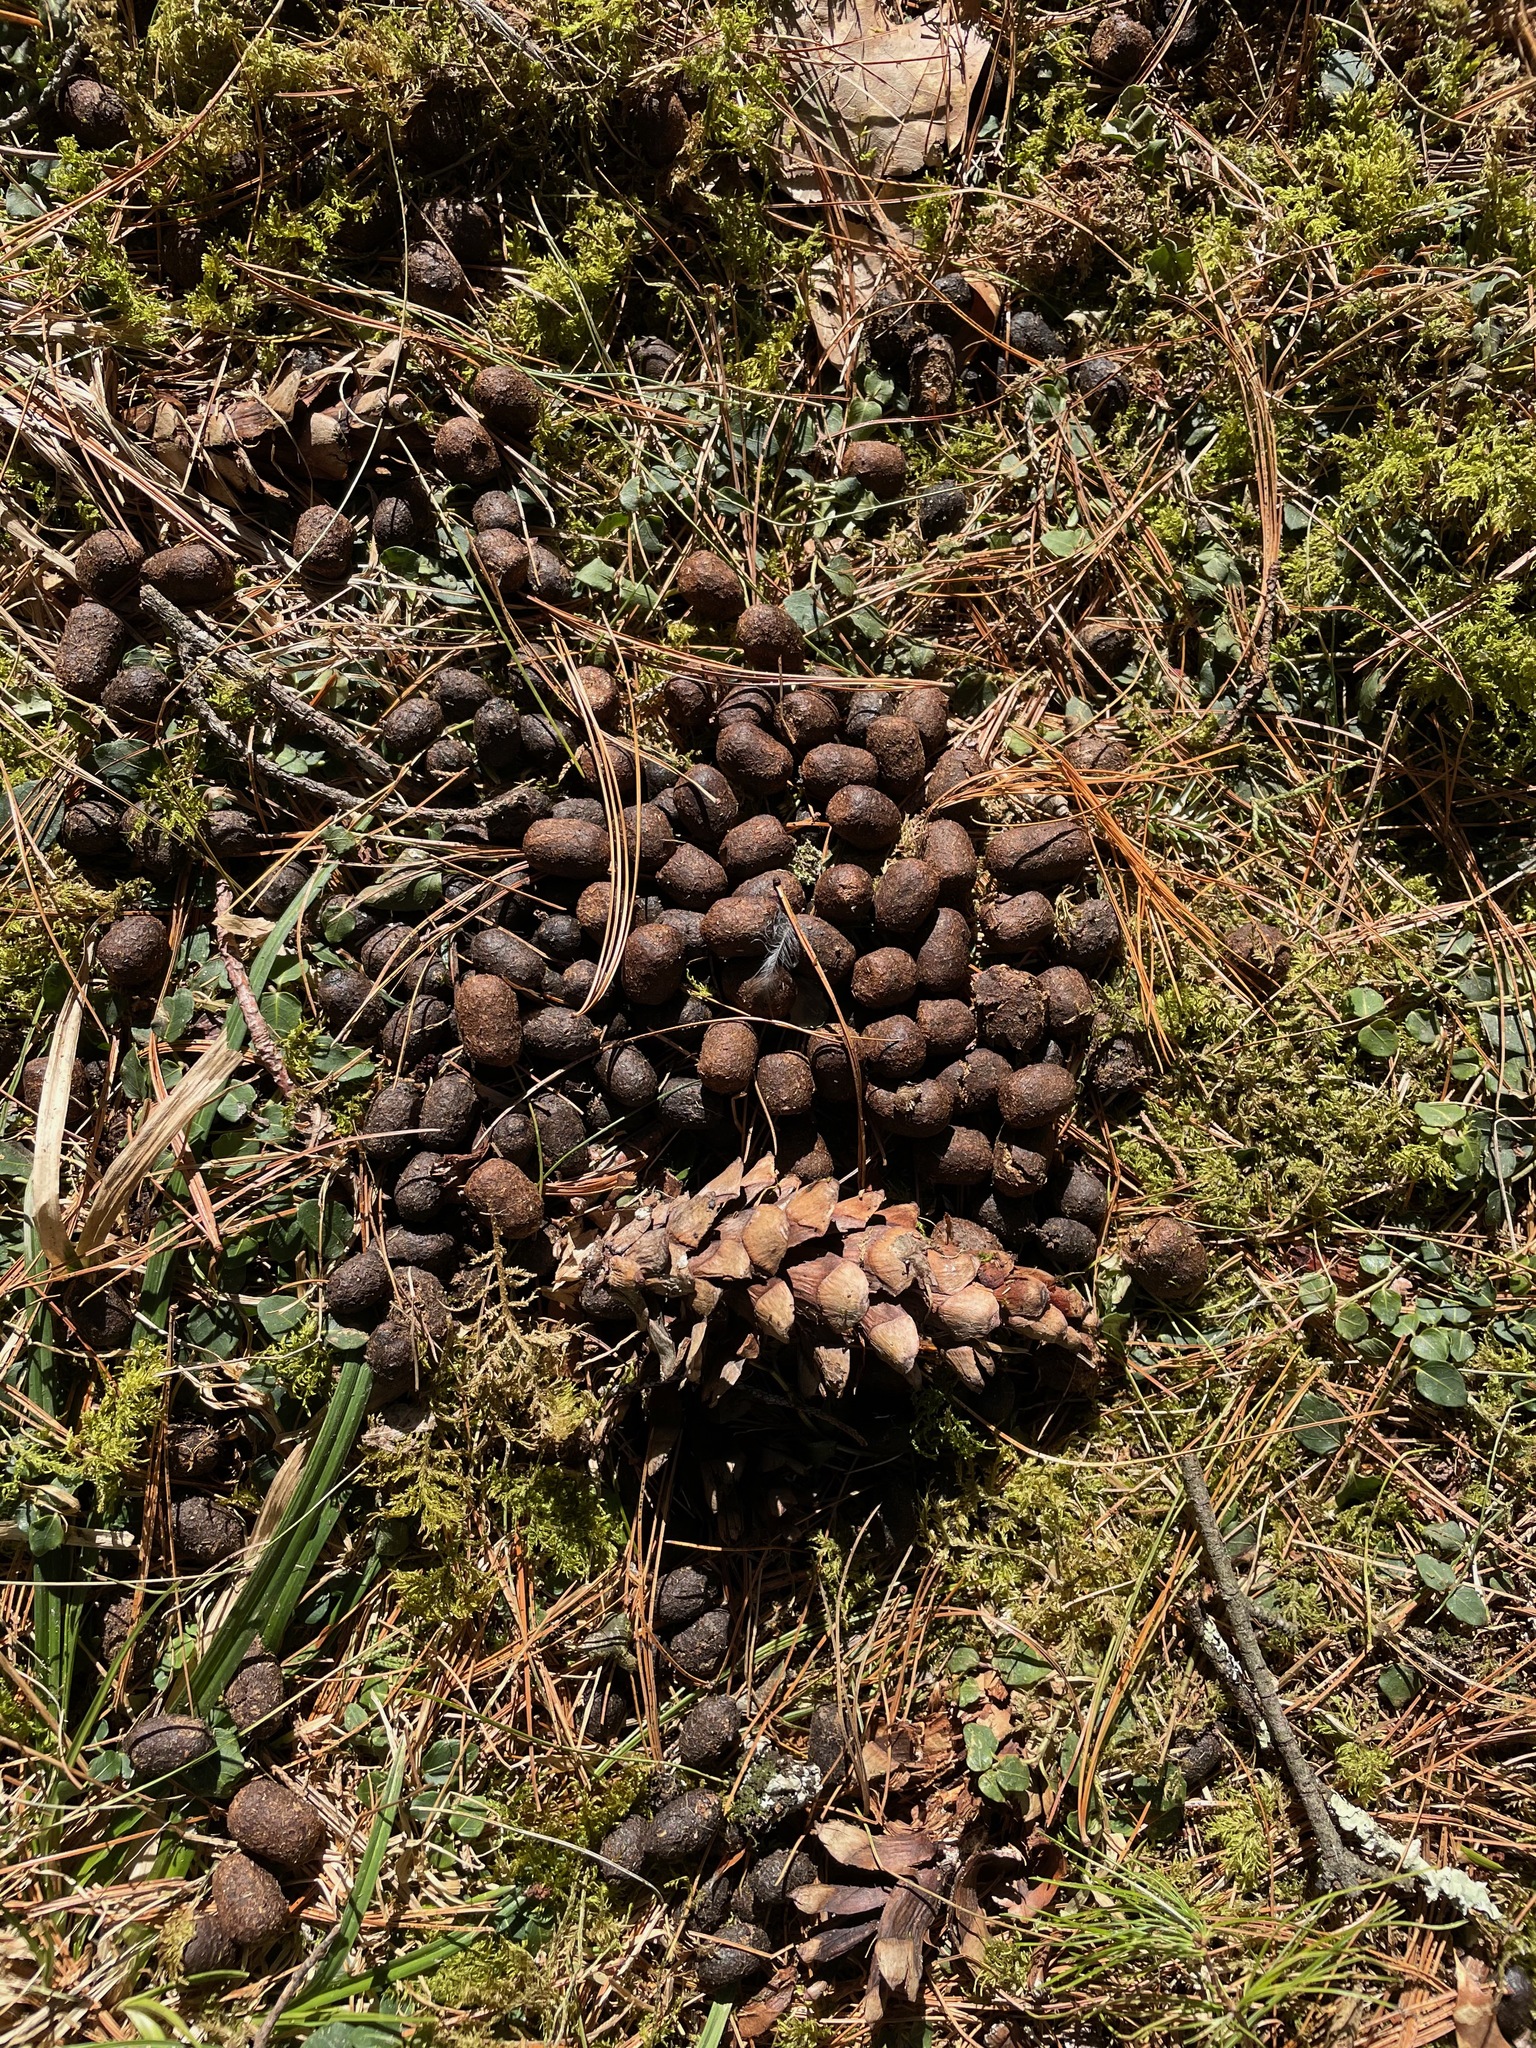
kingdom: Animalia
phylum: Chordata
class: Mammalia
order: Artiodactyla
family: Cervidae
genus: Odocoileus
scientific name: Odocoileus virginianus
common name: White-tailed deer
